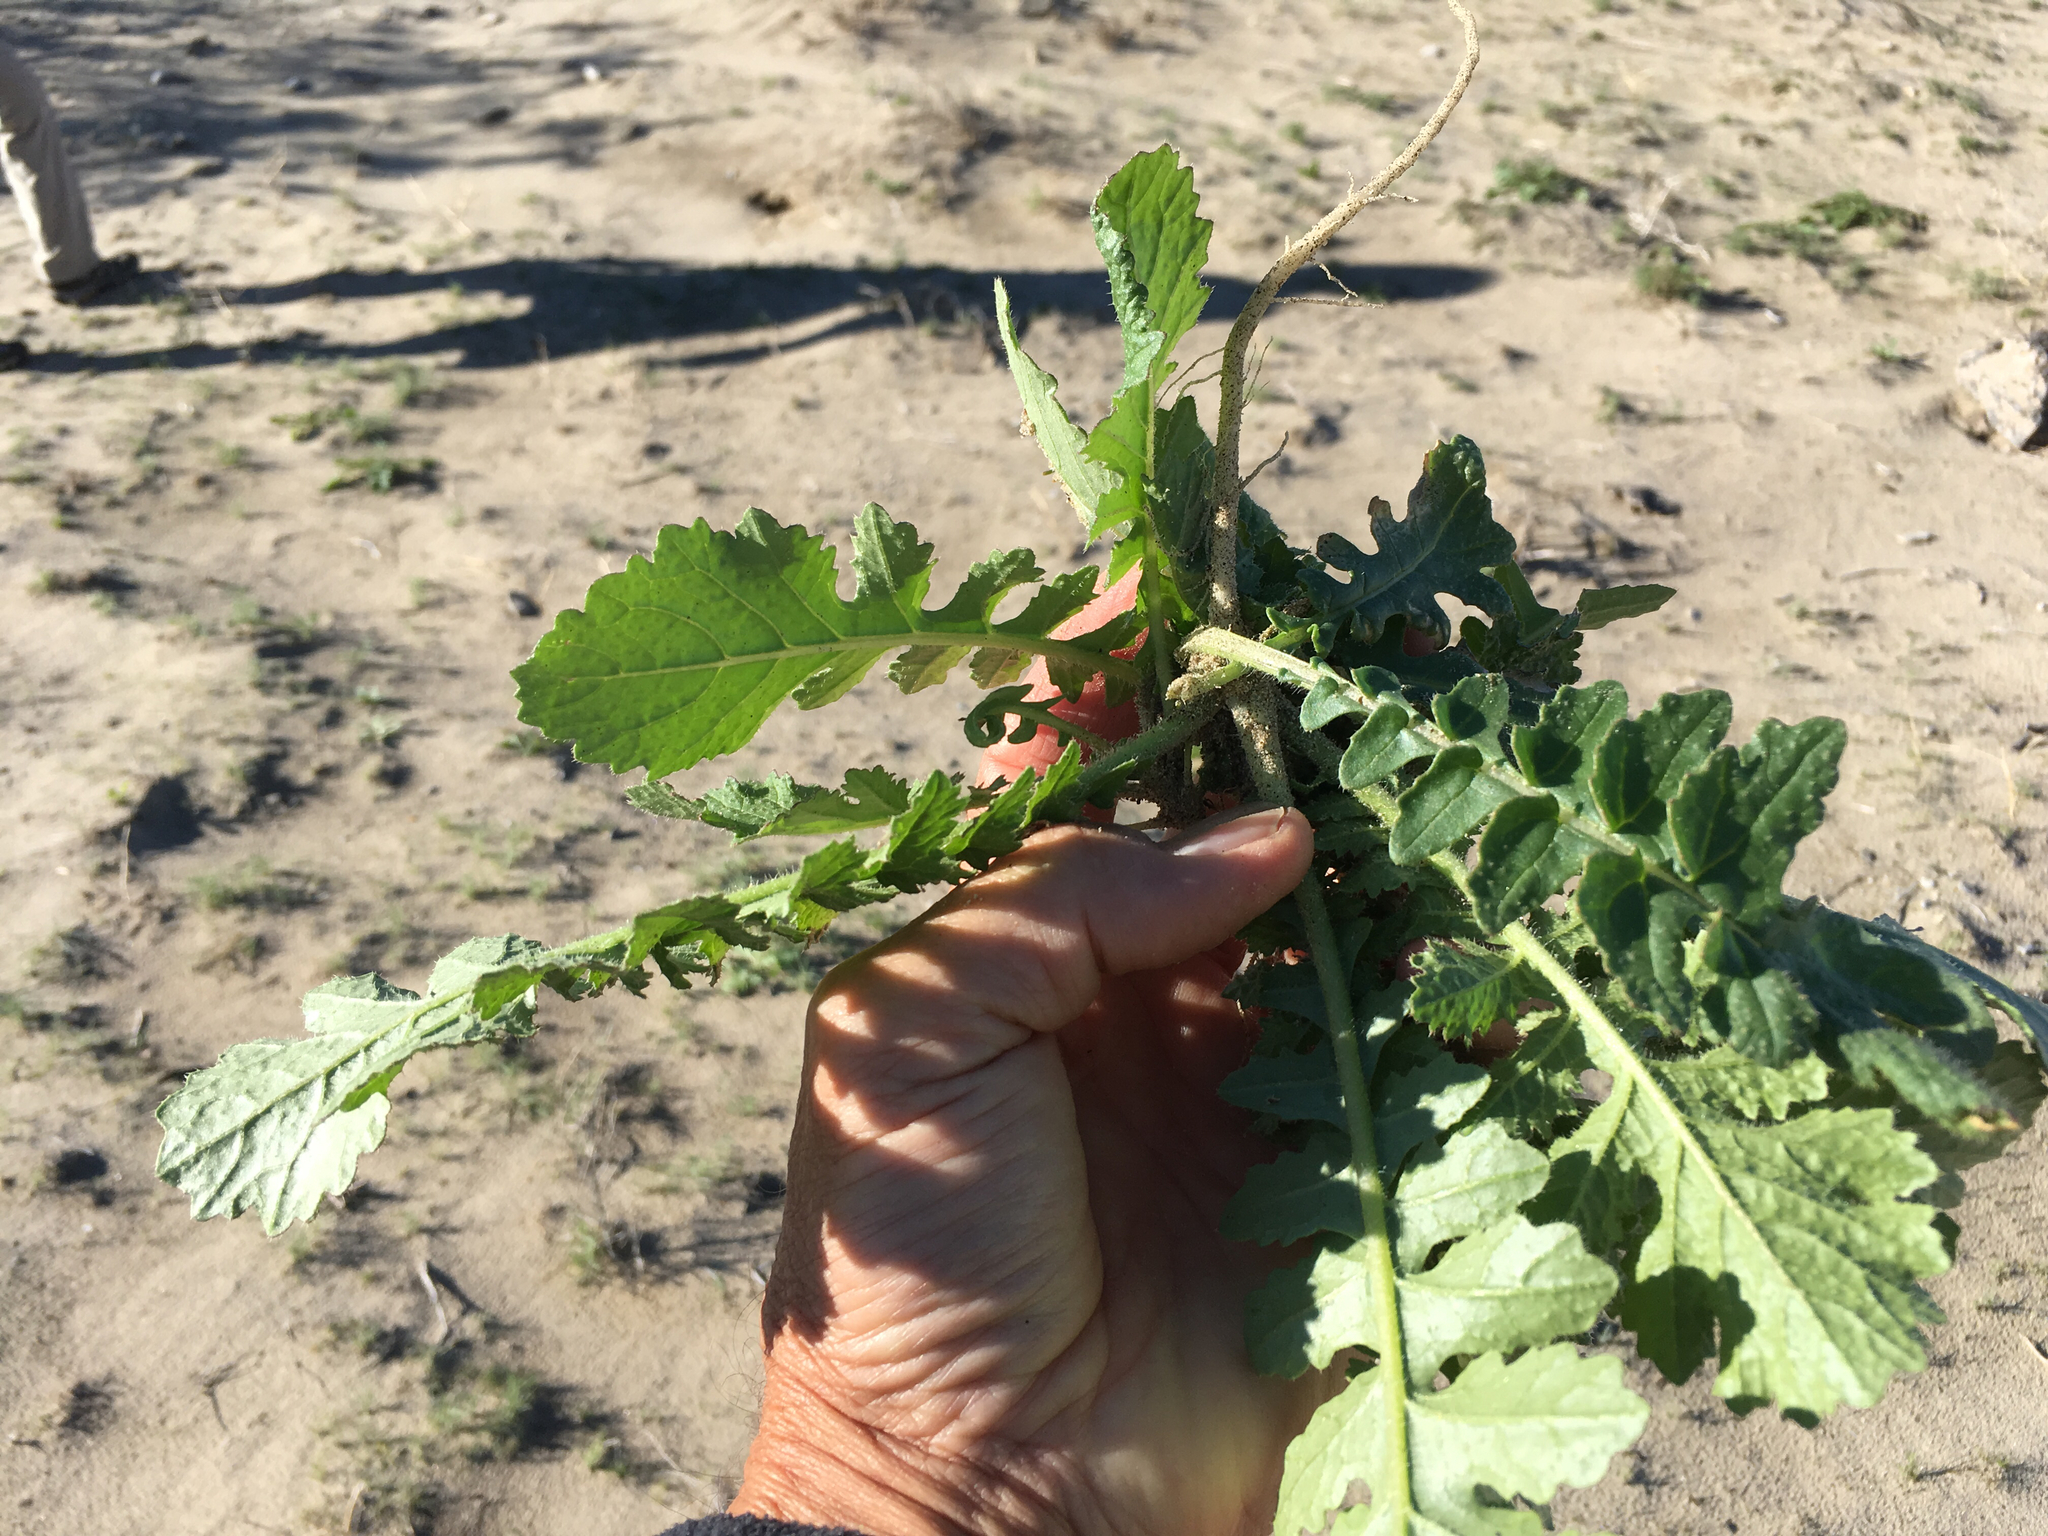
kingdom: Plantae
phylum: Tracheophyta
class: Magnoliopsida
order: Brassicales
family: Brassicaceae
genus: Brassica
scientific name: Brassica tournefortii
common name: Pale cabbage
